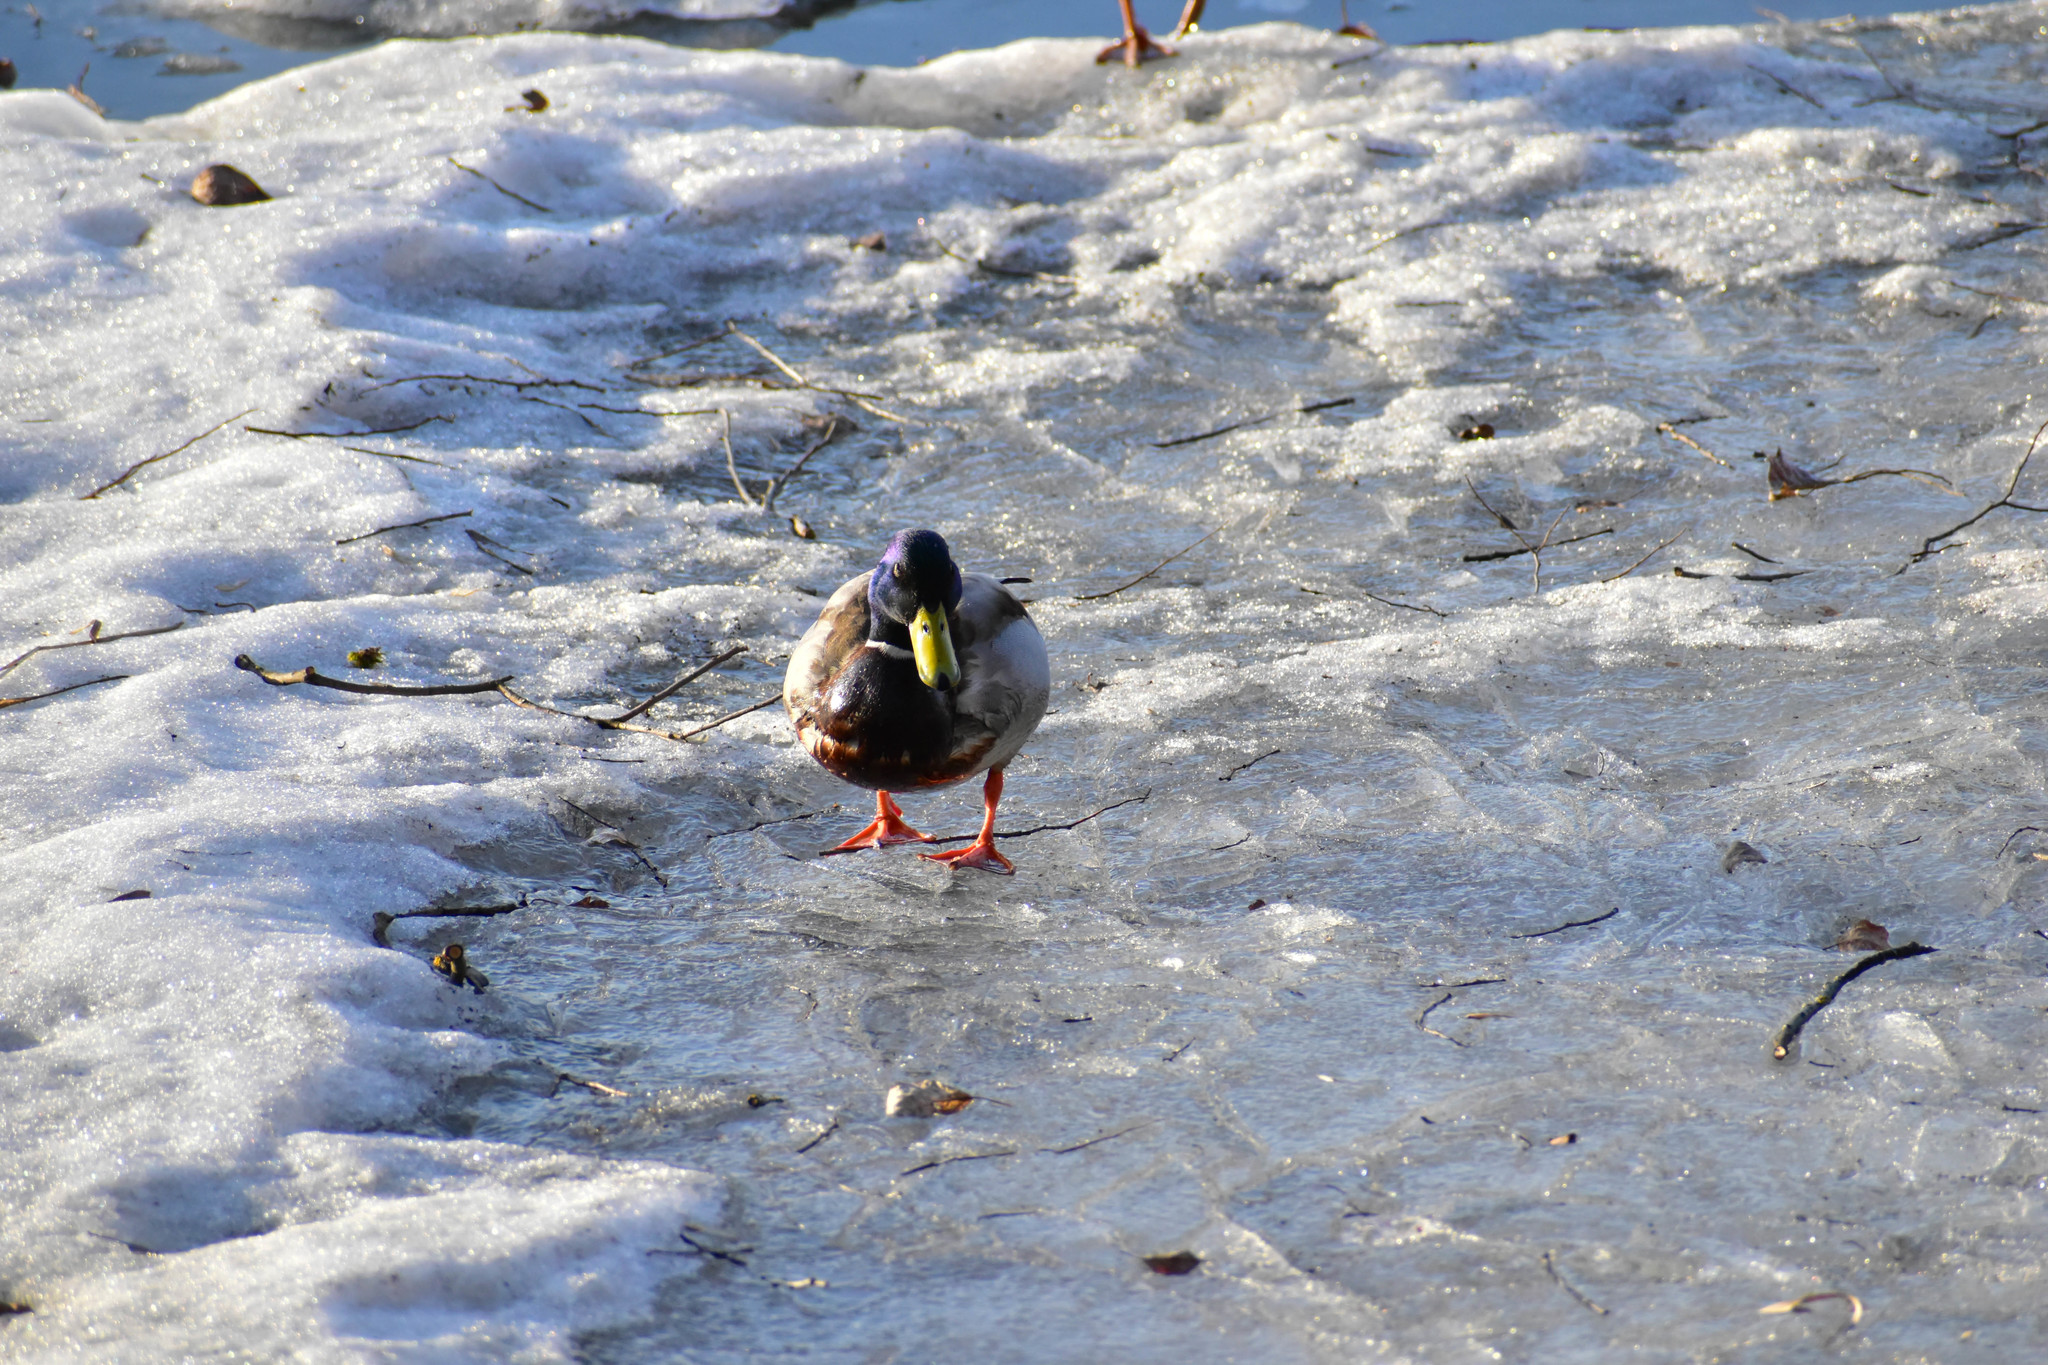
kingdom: Animalia
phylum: Chordata
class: Aves
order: Anseriformes
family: Anatidae
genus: Anas
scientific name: Anas platyrhynchos
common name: Mallard
